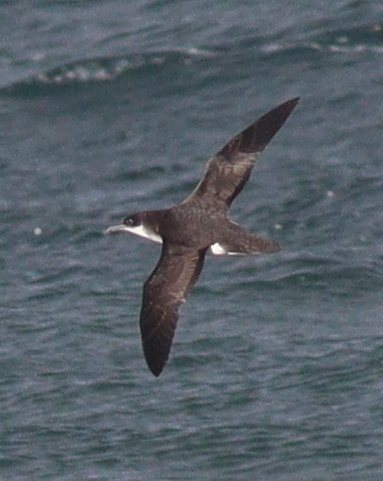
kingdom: Animalia
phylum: Chordata
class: Aves
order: Procellariiformes
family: Procellariidae
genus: Puffinus
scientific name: Puffinus puffinus
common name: Manx shearwater
